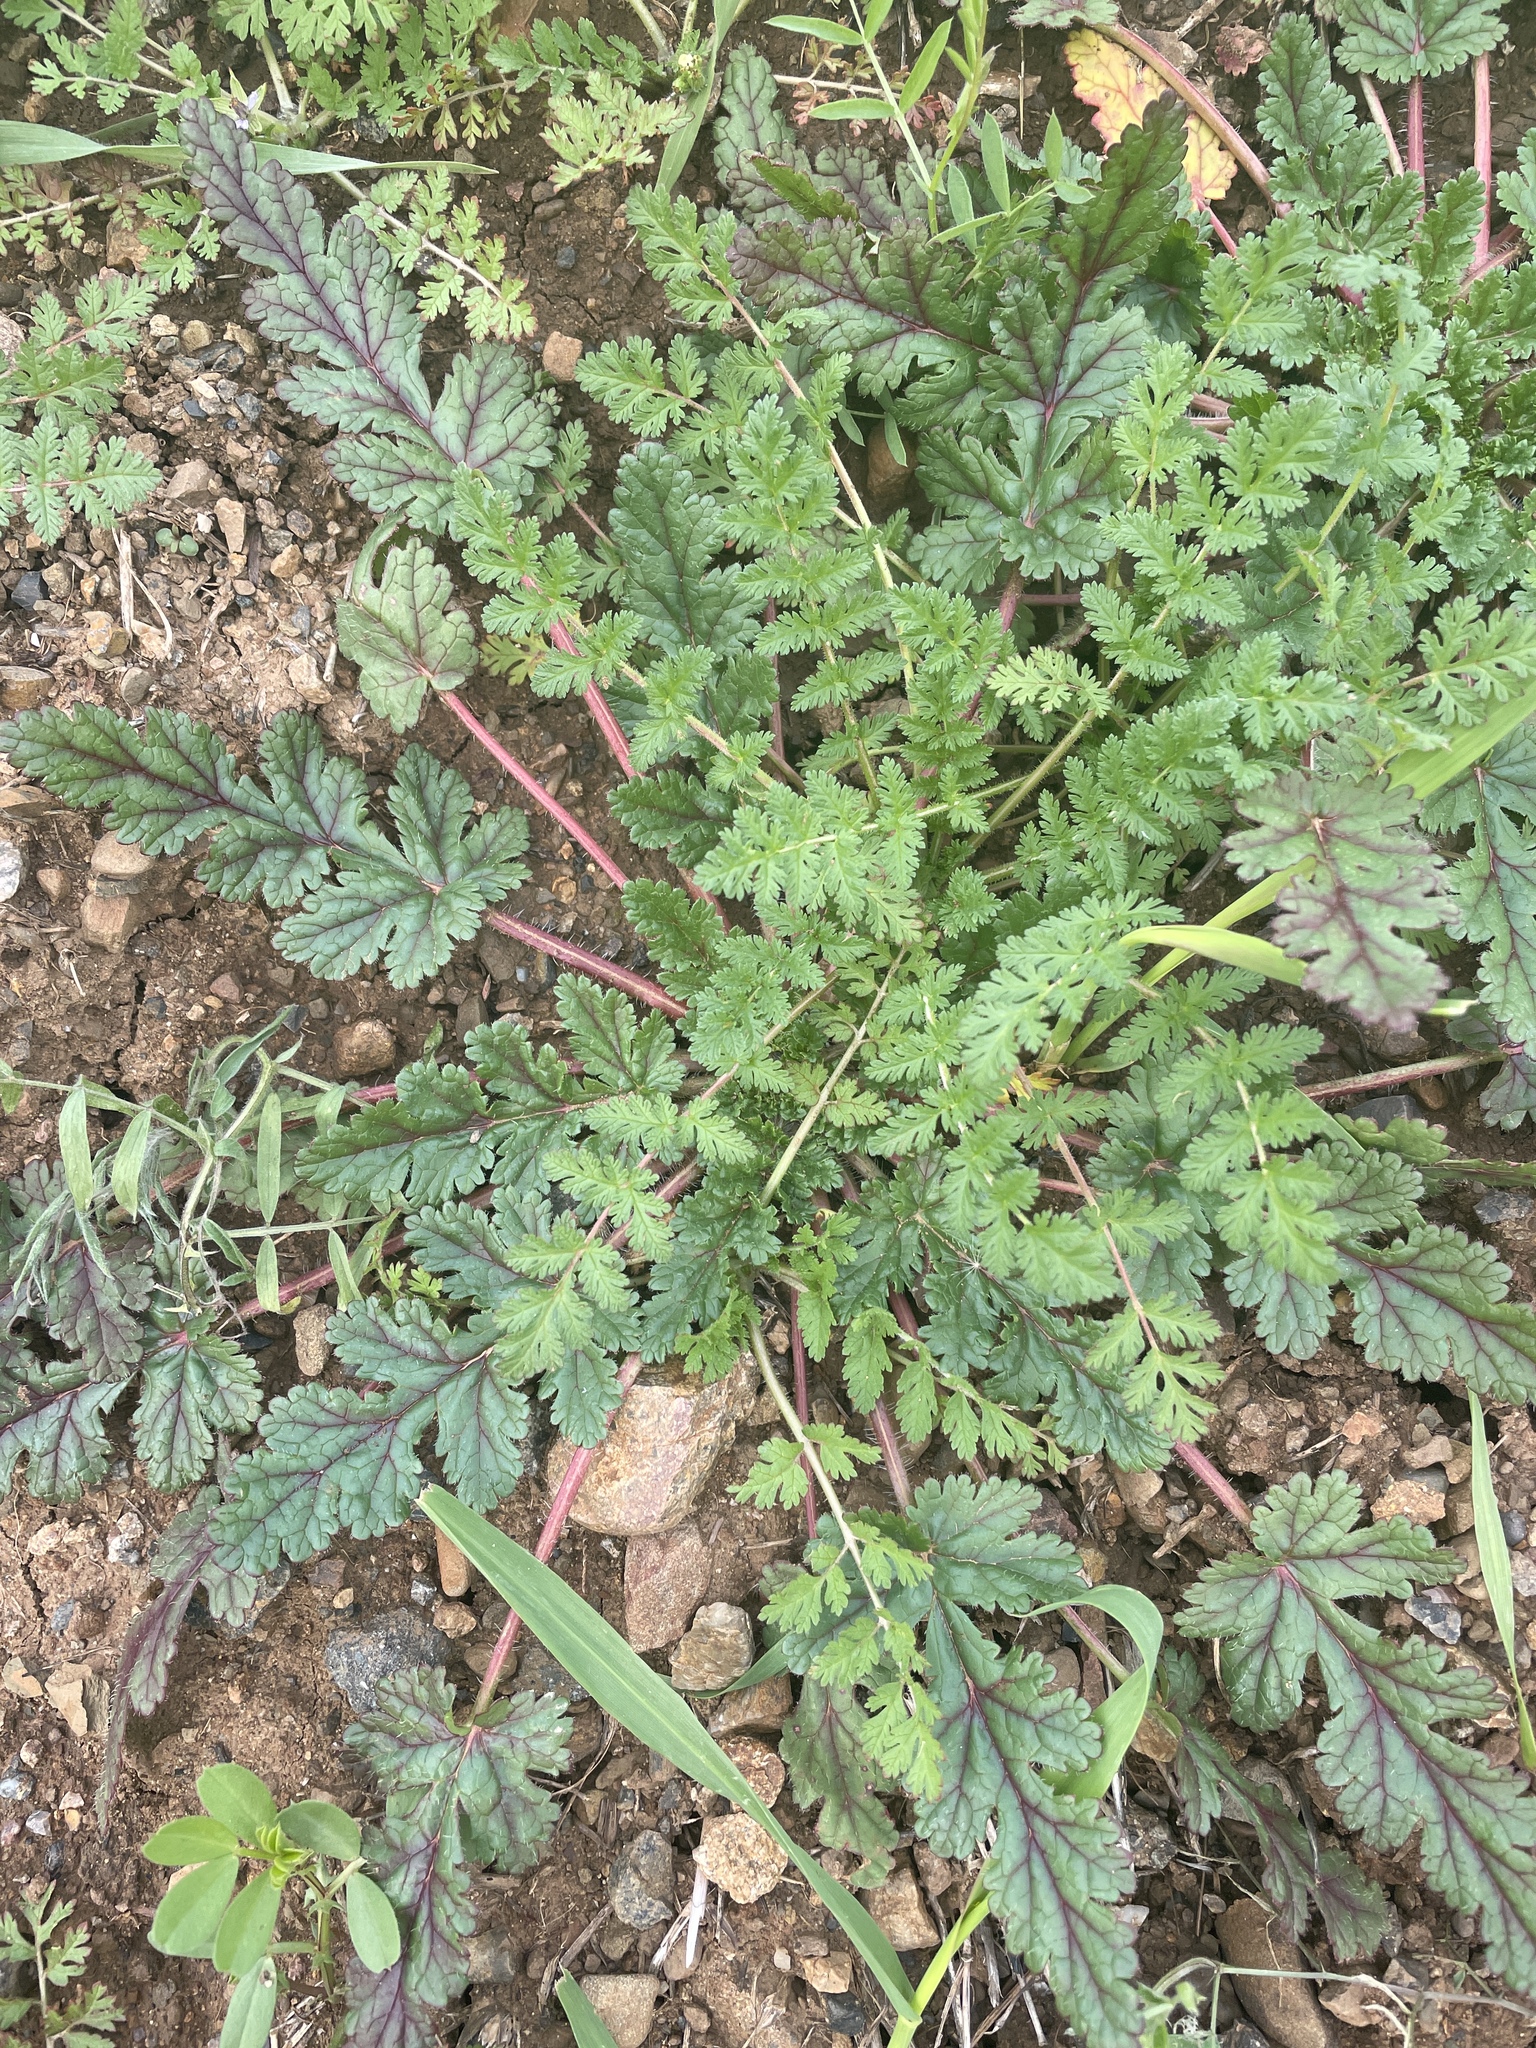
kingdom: Plantae
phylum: Tracheophyta
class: Magnoliopsida
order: Geraniales
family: Geraniaceae
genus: Erodium
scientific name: Erodium
